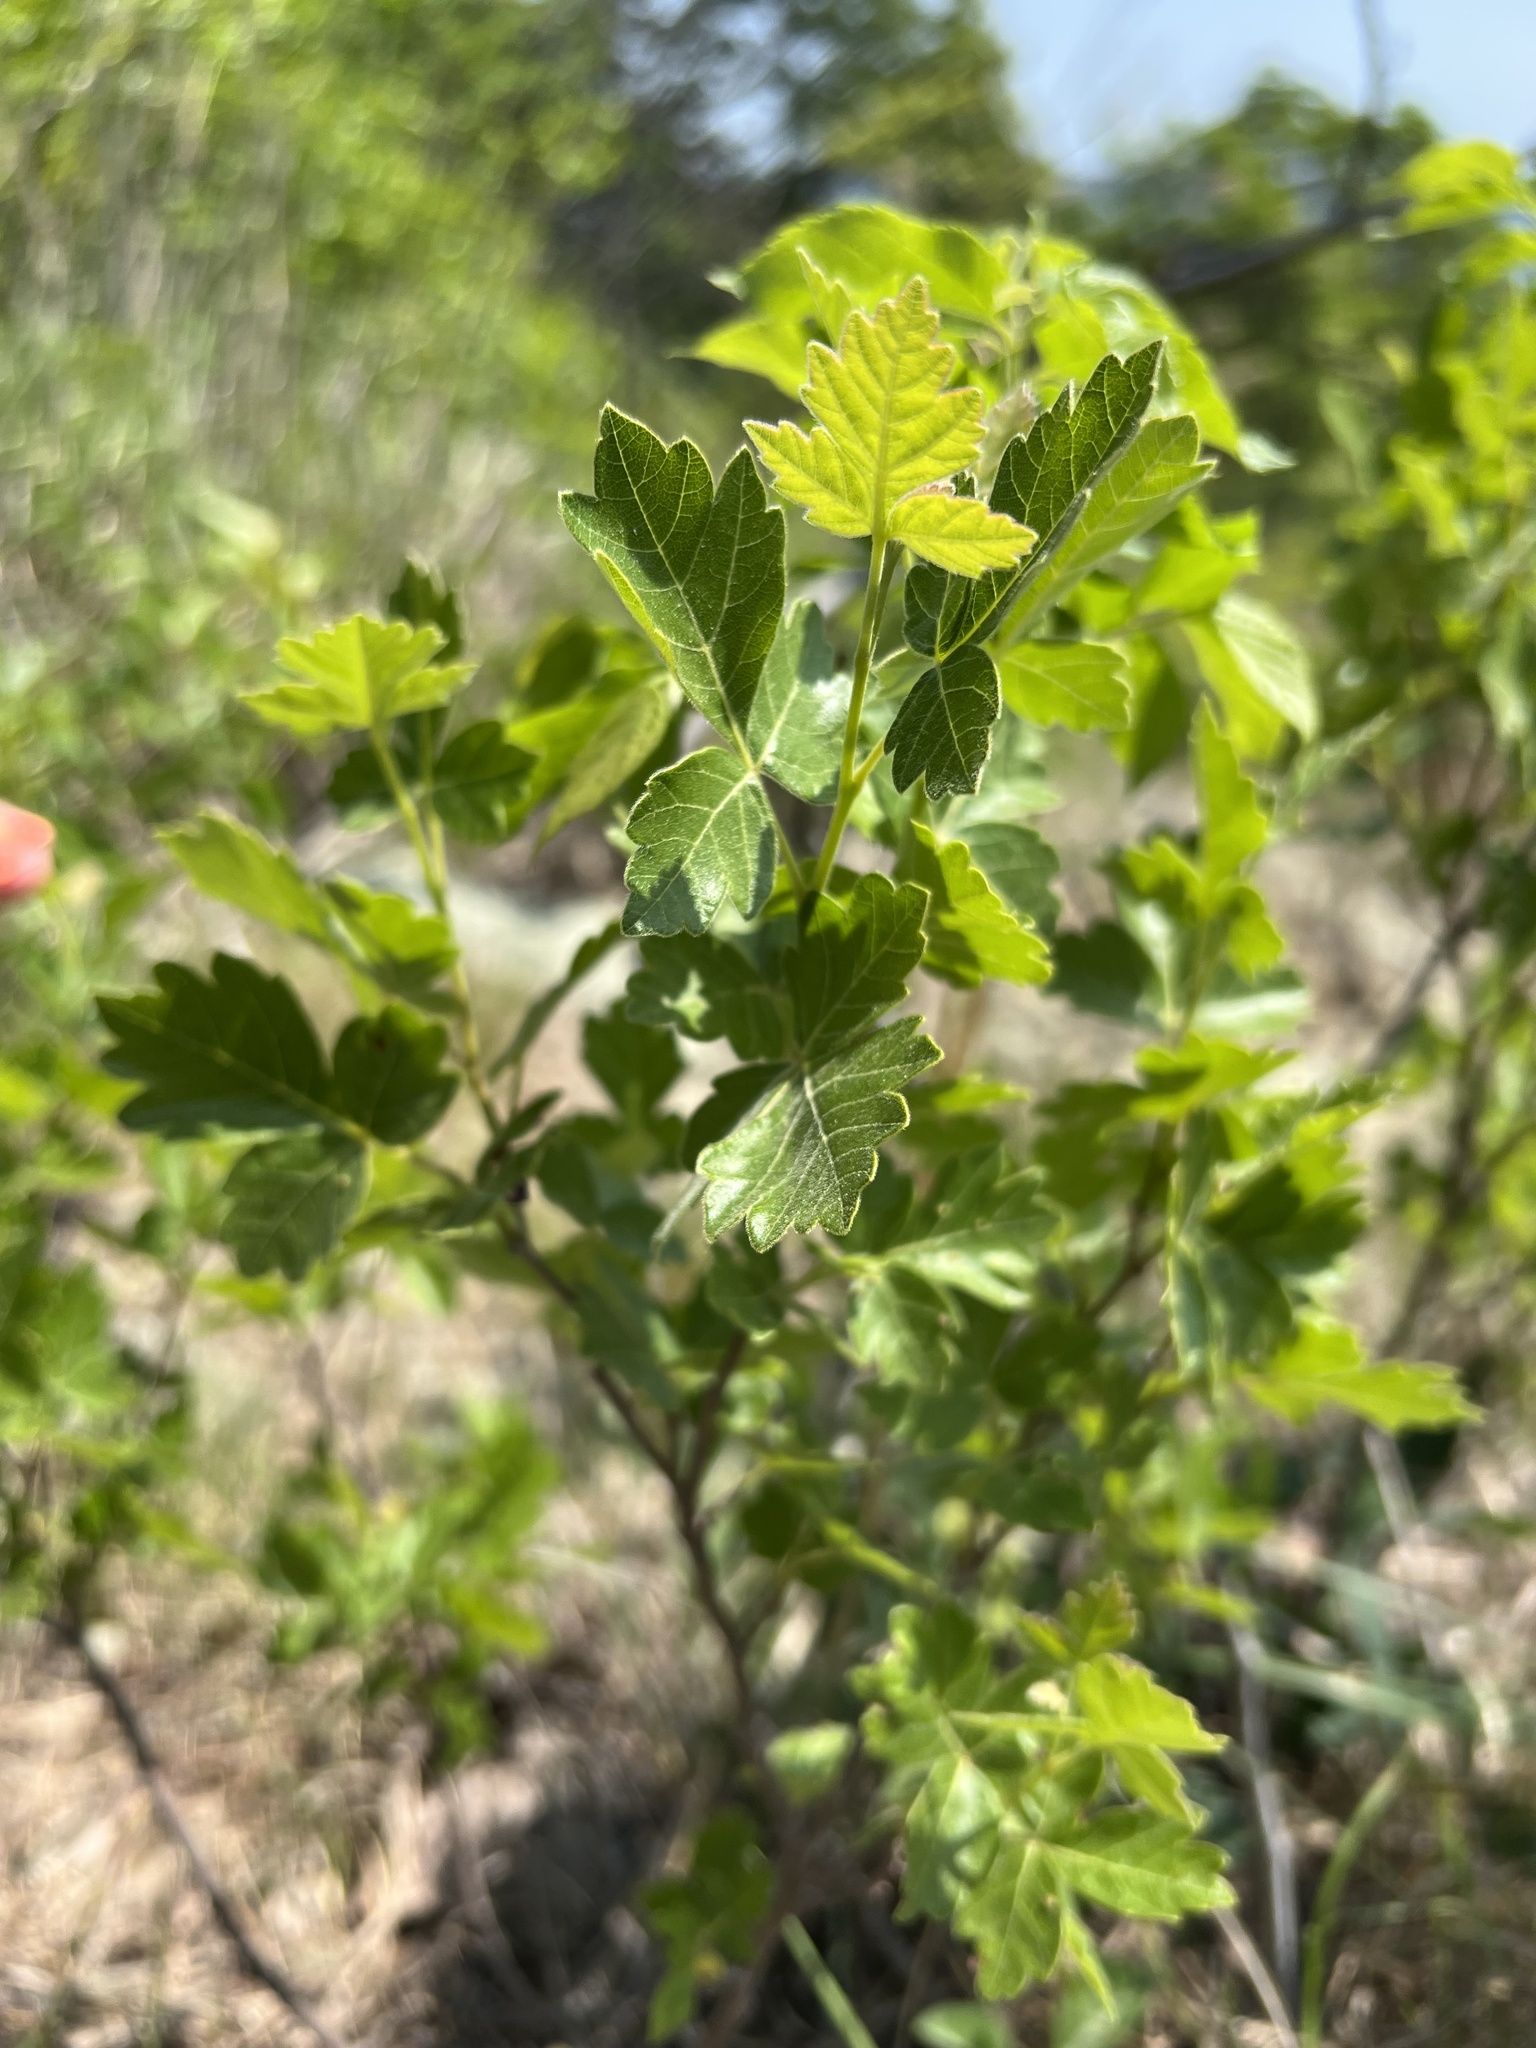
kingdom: Plantae
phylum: Tracheophyta
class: Magnoliopsida
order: Sapindales
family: Anacardiaceae
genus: Rhus
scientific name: Rhus aromatica
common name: Aromatic sumac
